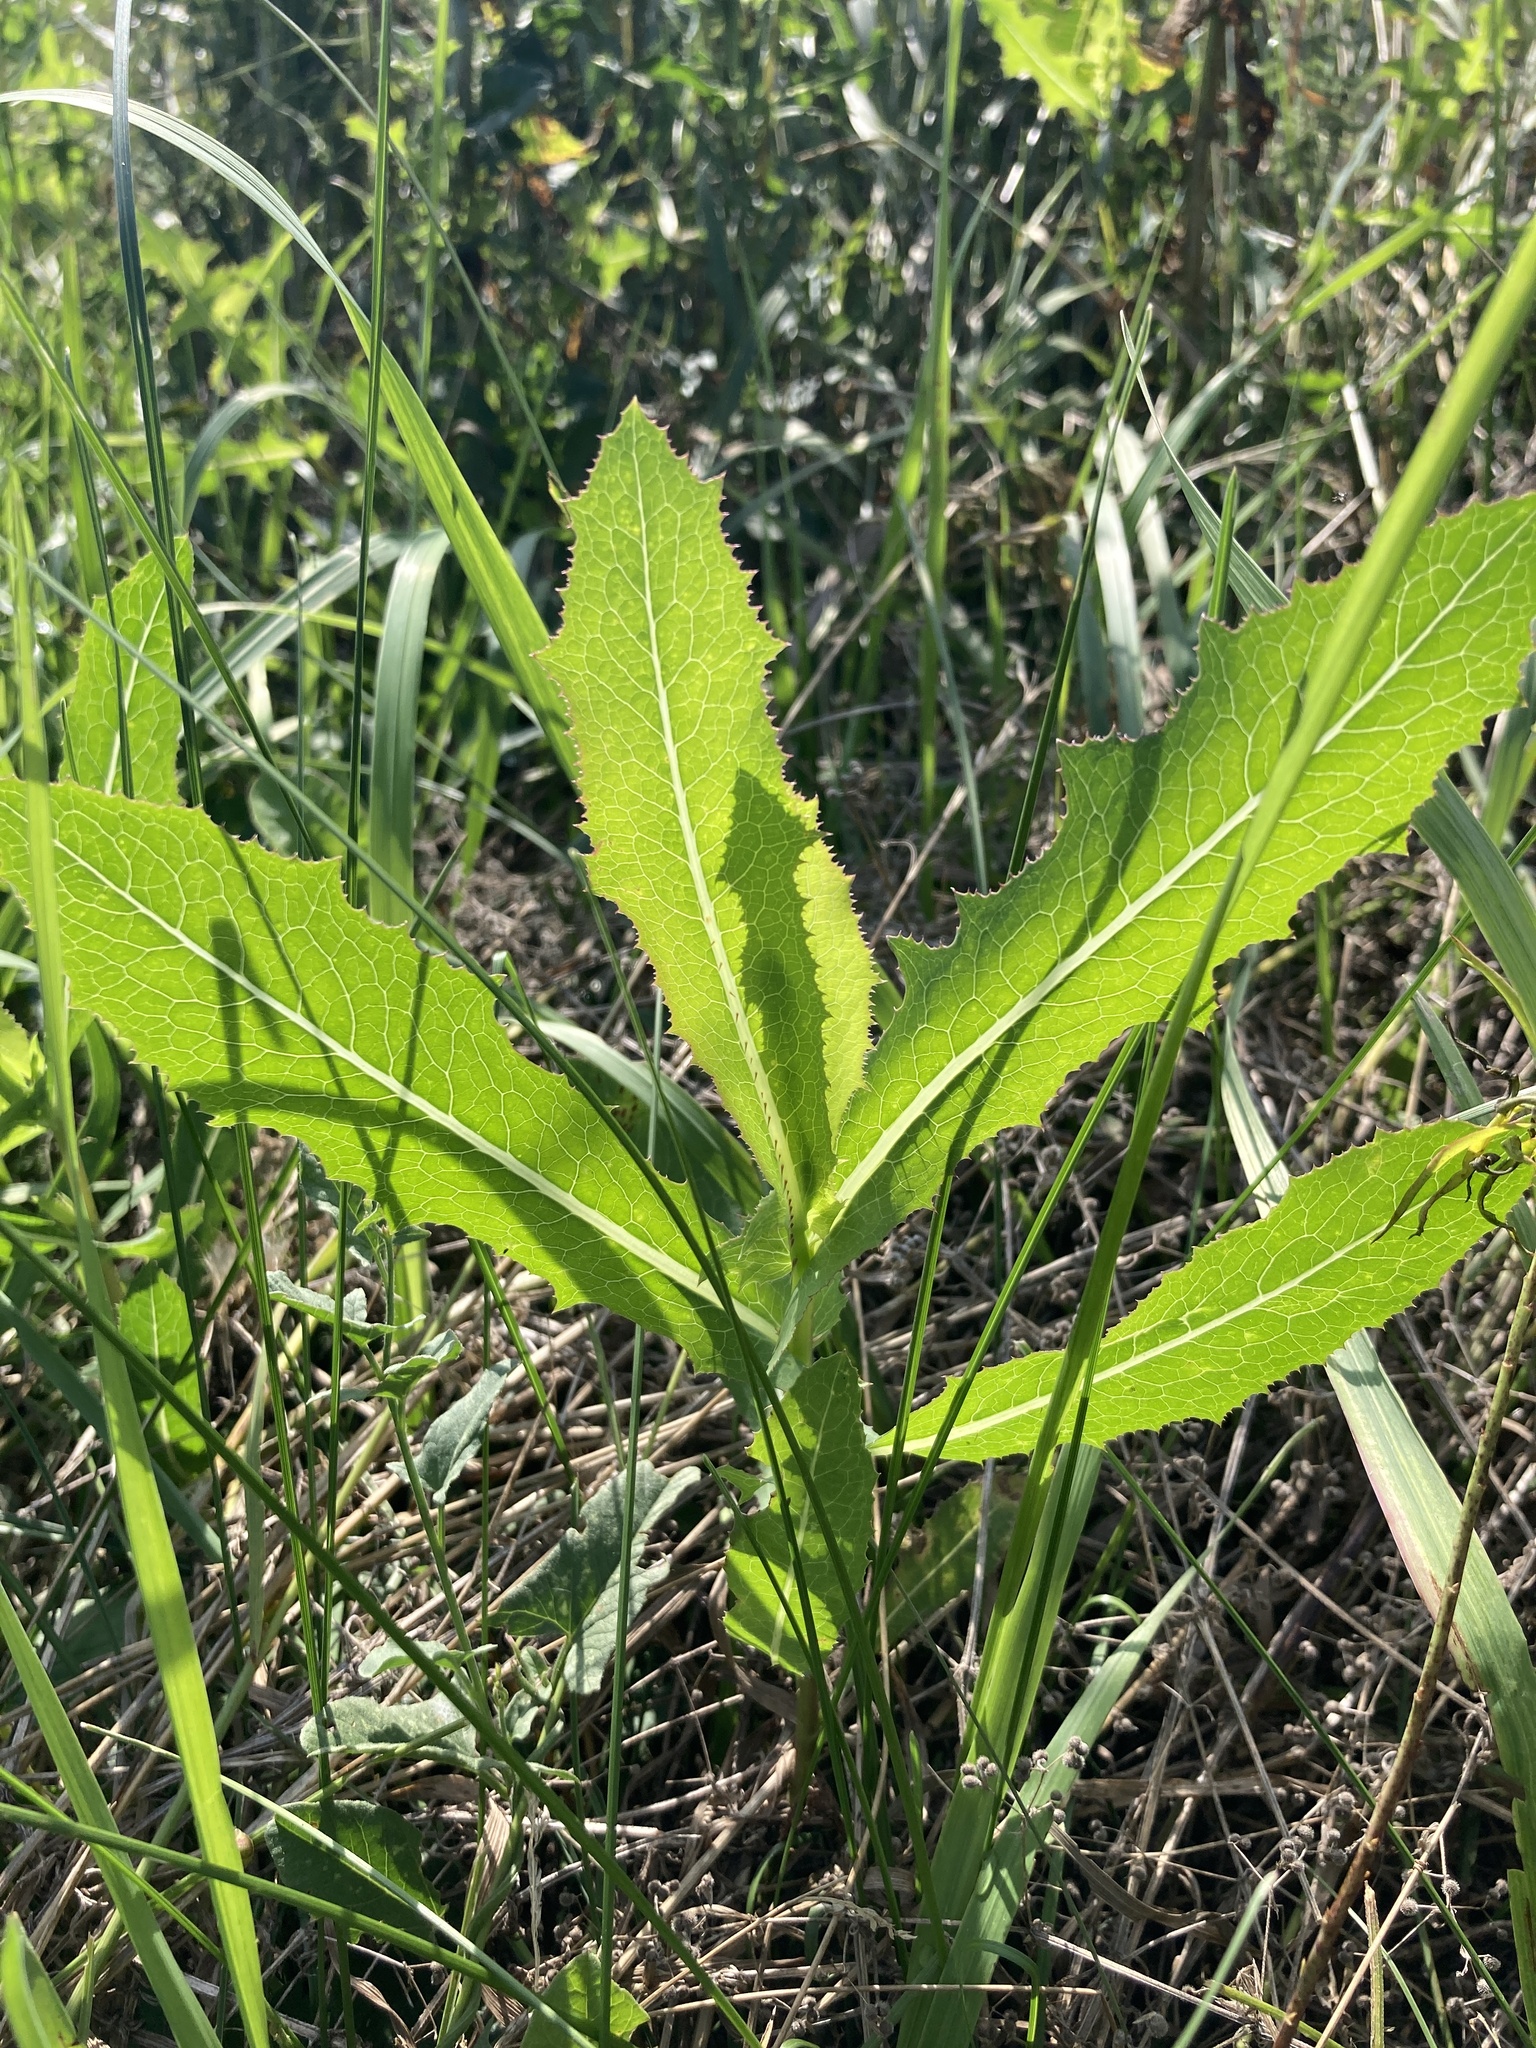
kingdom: Plantae
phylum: Tracheophyta
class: Magnoliopsida
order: Asterales
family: Asteraceae
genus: Lactuca
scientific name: Lactuca serriola
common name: Prickly lettuce
